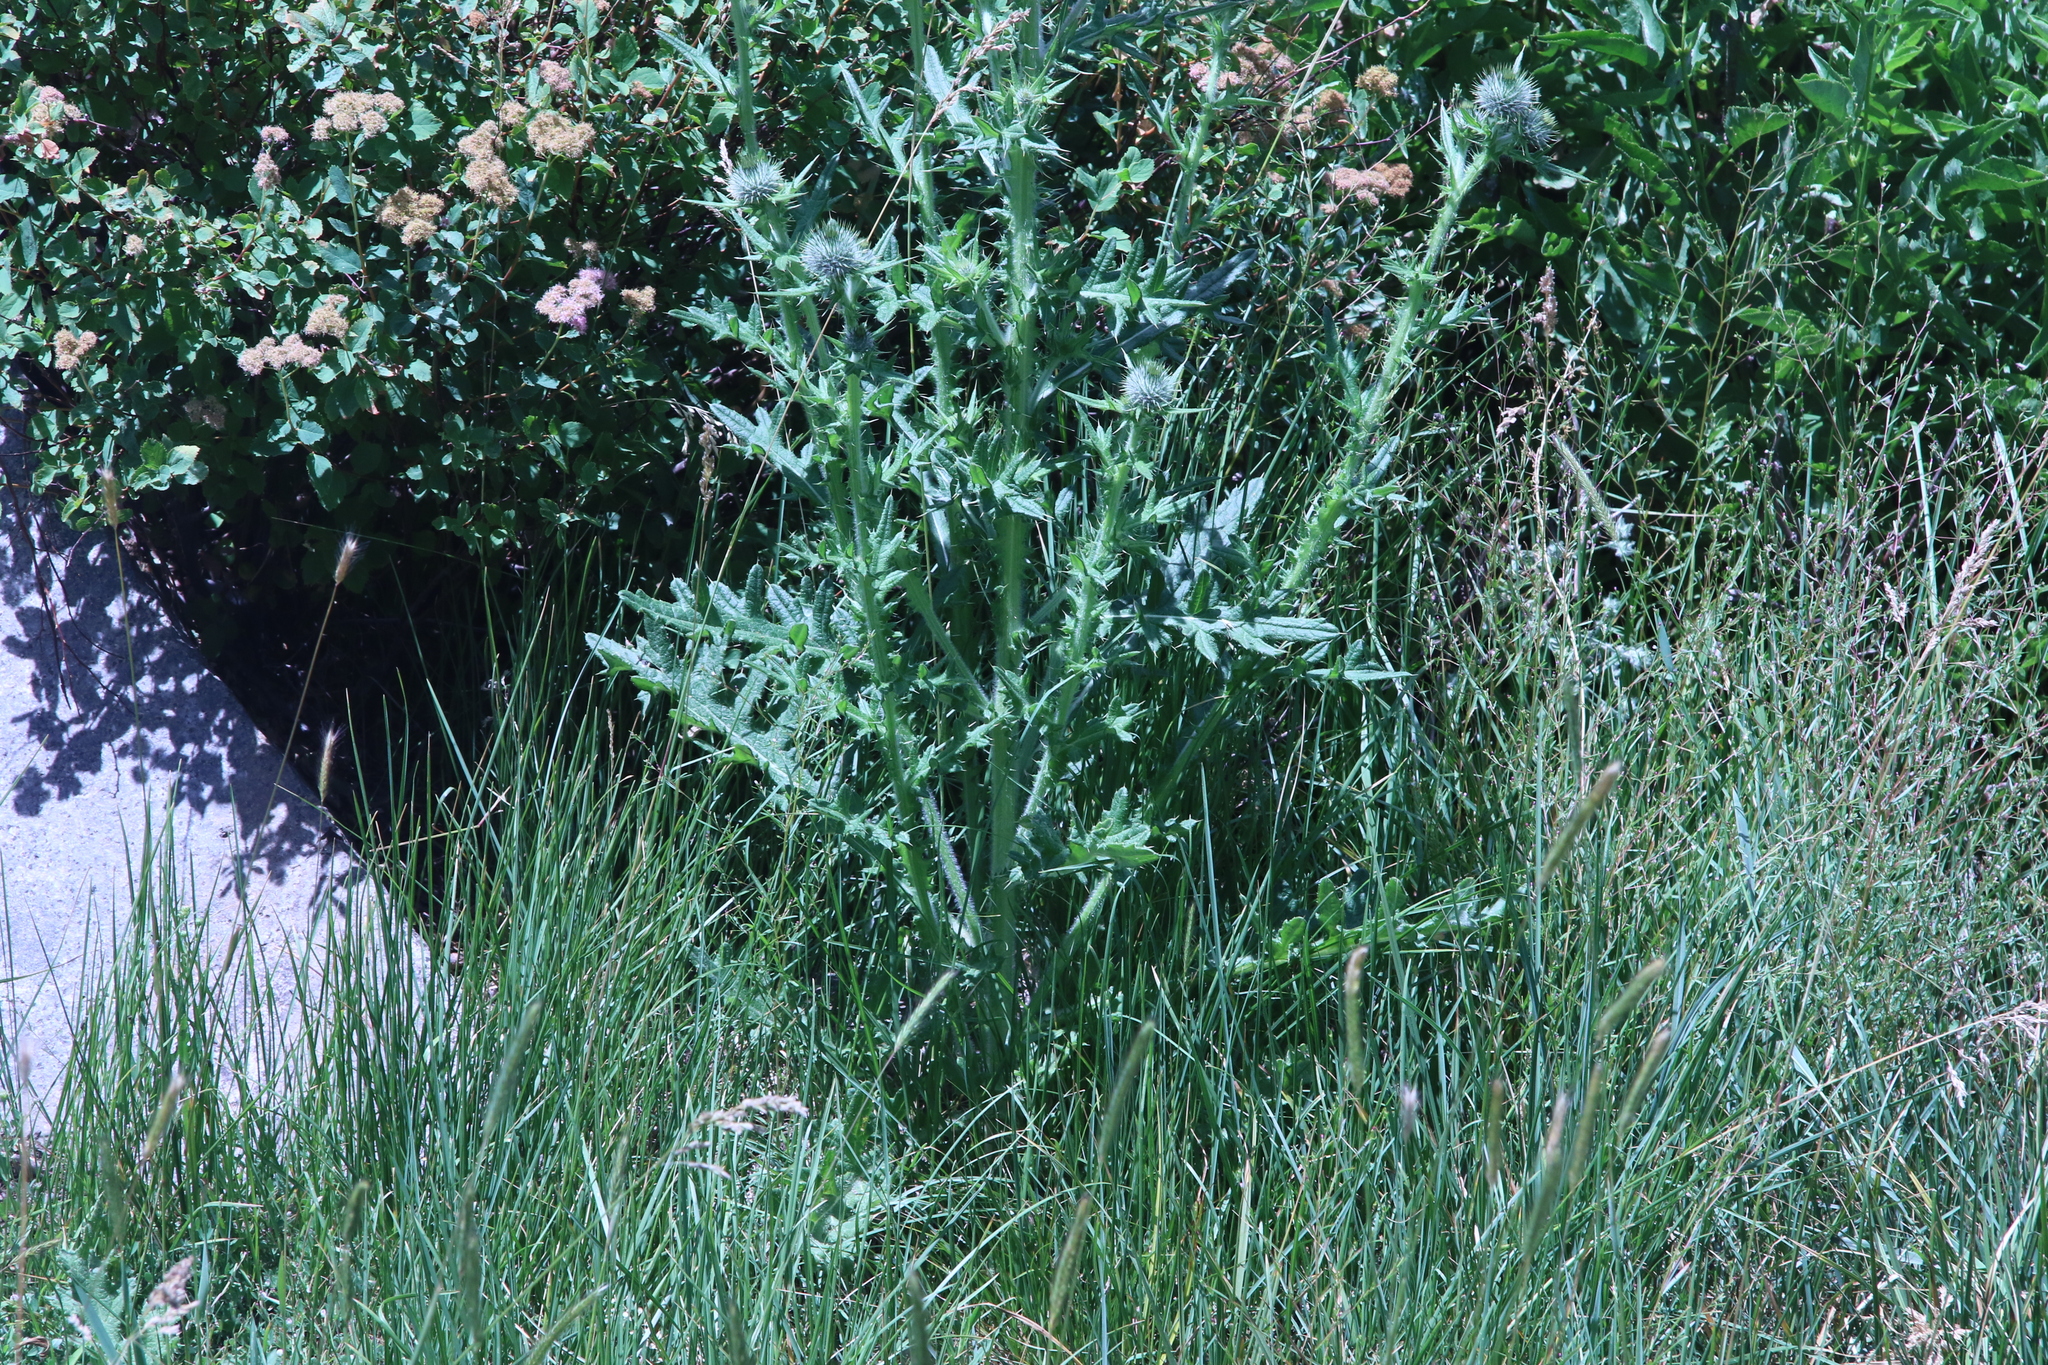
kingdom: Plantae
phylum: Tracheophyta
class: Magnoliopsida
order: Asterales
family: Asteraceae
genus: Cirsium
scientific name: Cirsium vulgare
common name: Bull thistle
